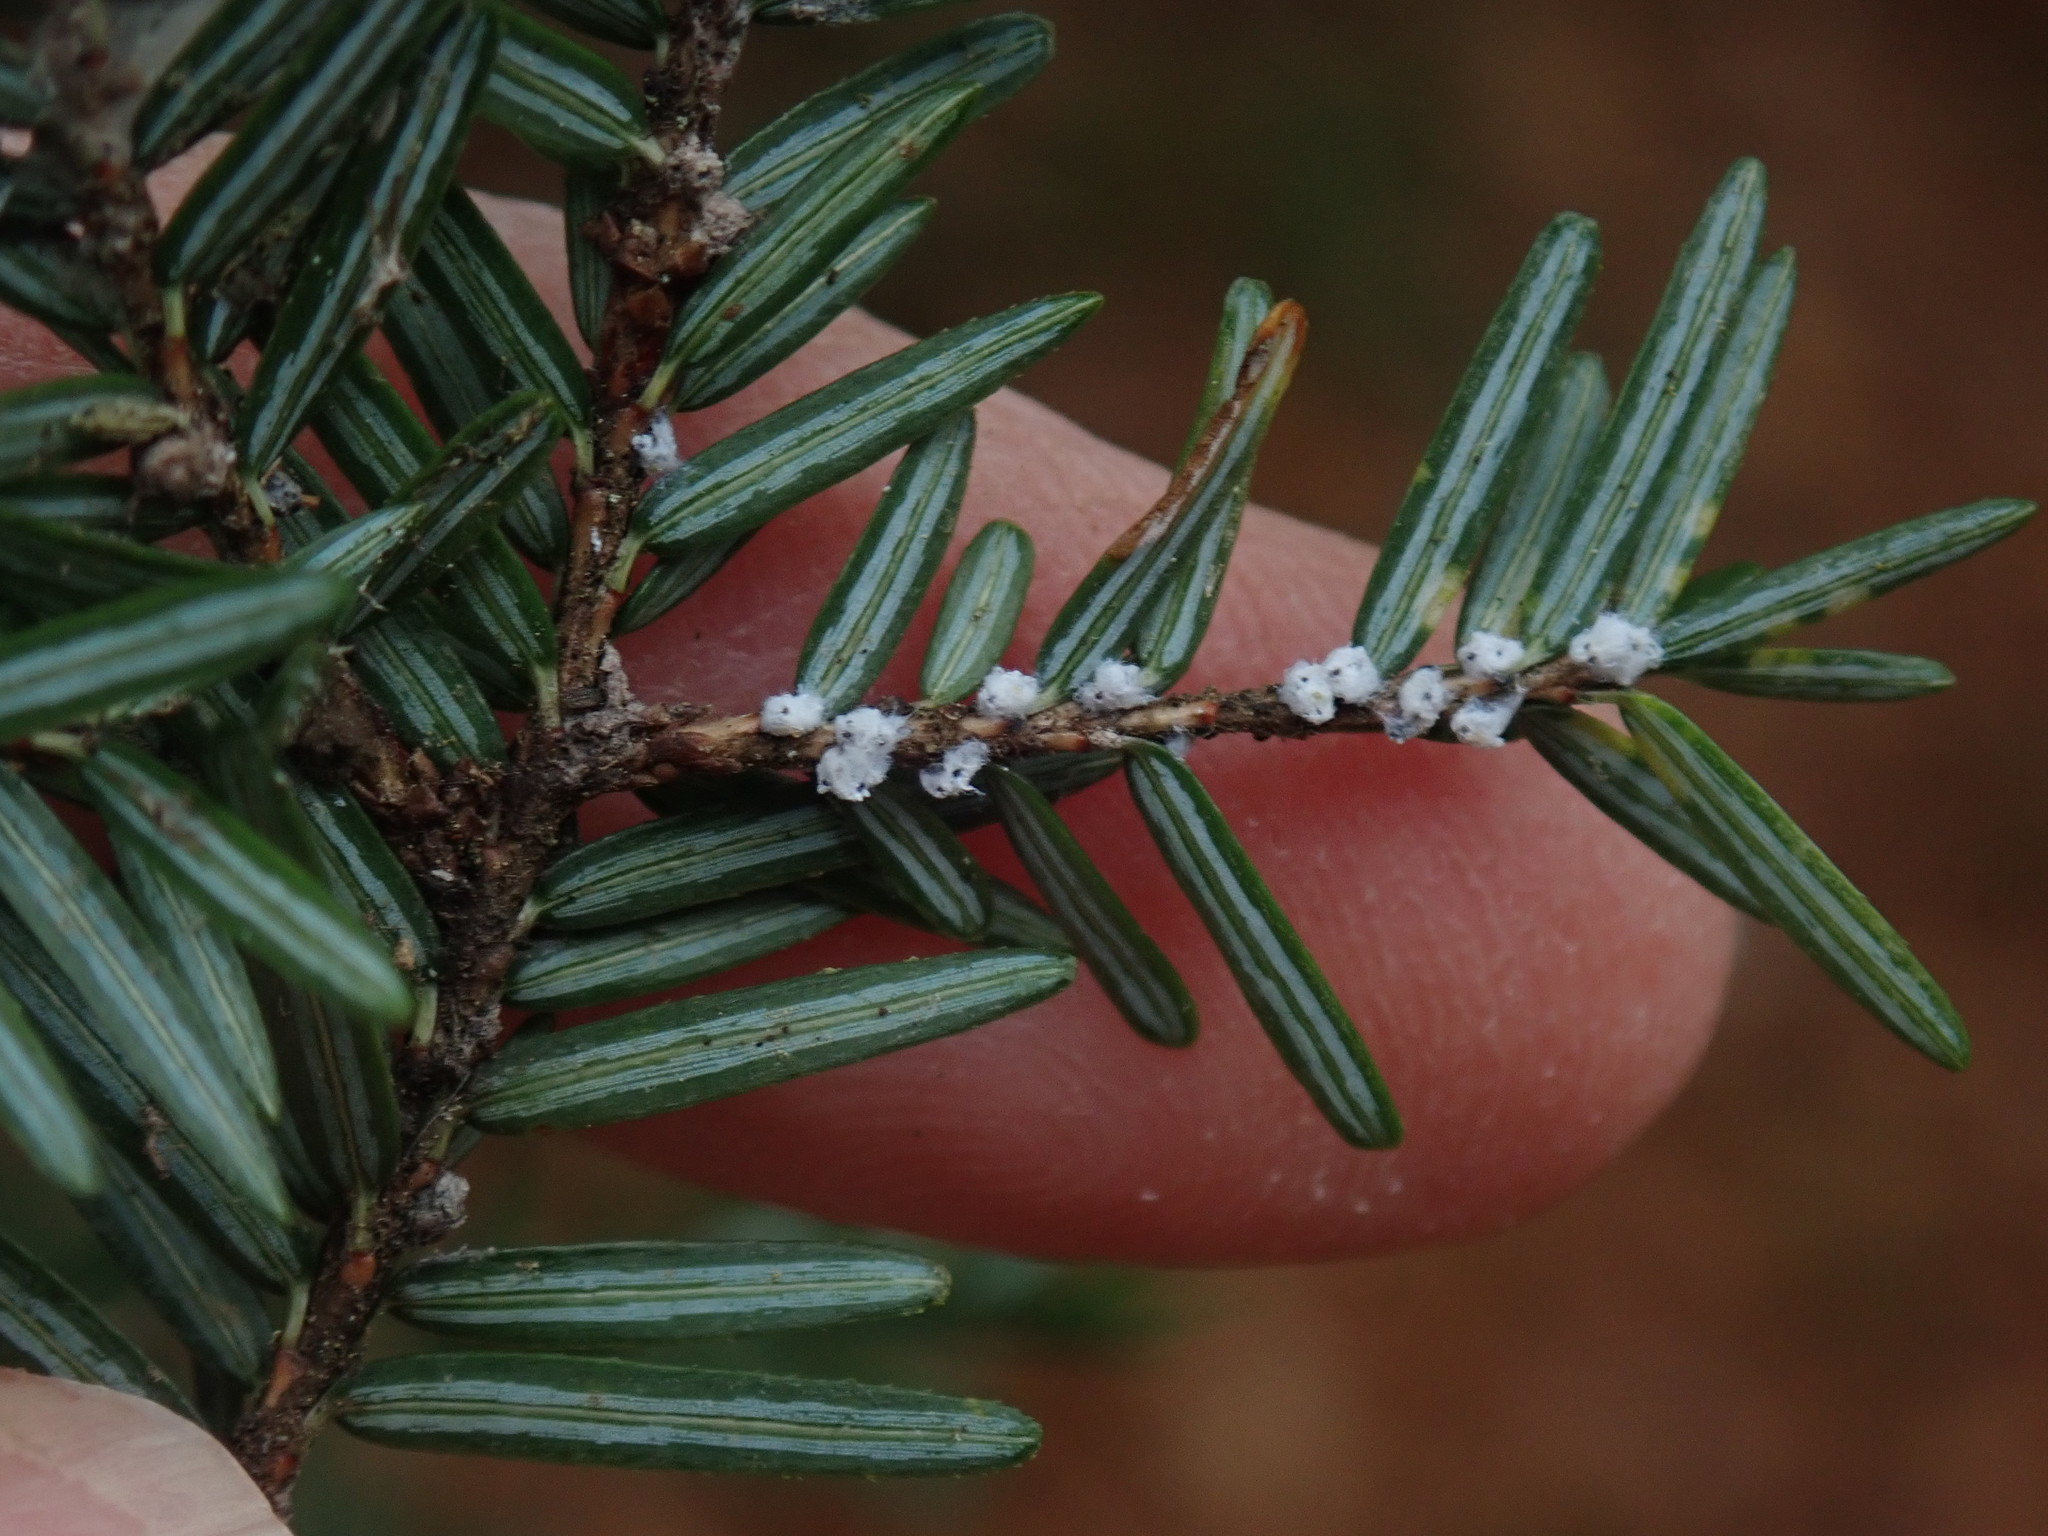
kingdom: Animalia
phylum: Arthropoda
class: Insecta
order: Hemiptera
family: Adelgidae
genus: Adelges
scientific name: Adelges tsugae
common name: Hemlock woolly adelgid
